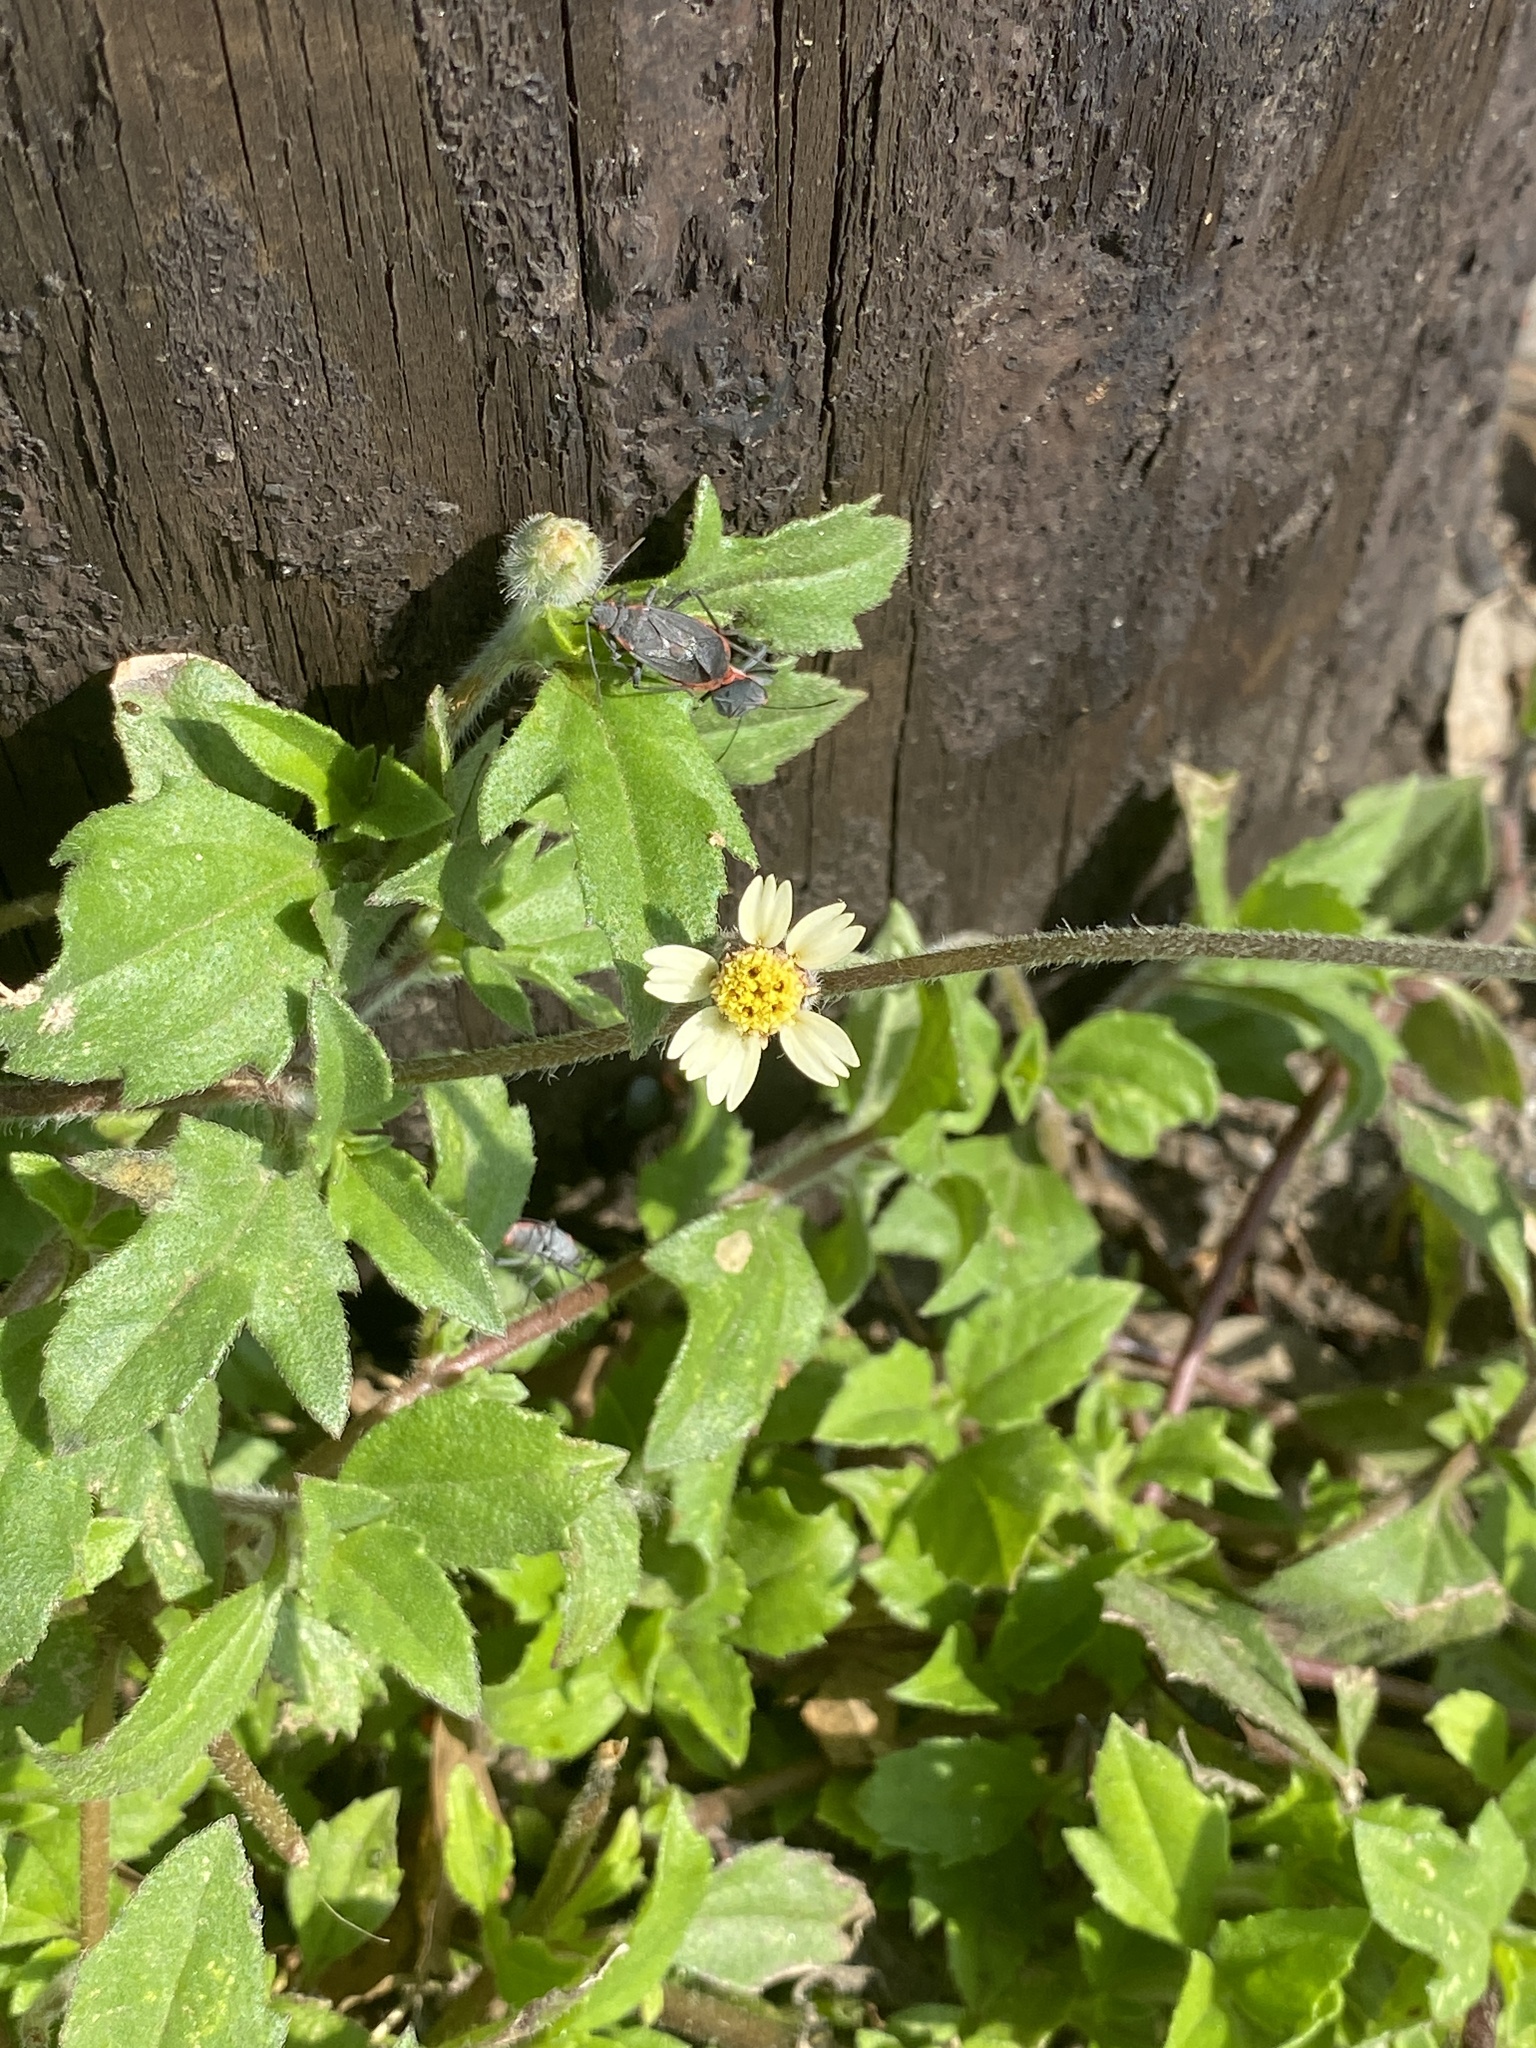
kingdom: Plantae
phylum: Tracheophyta
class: Magnoliopsida
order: Asterales
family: Asteraceae
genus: Tridax
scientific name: Tridax procumbens
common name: Coatbuttons
